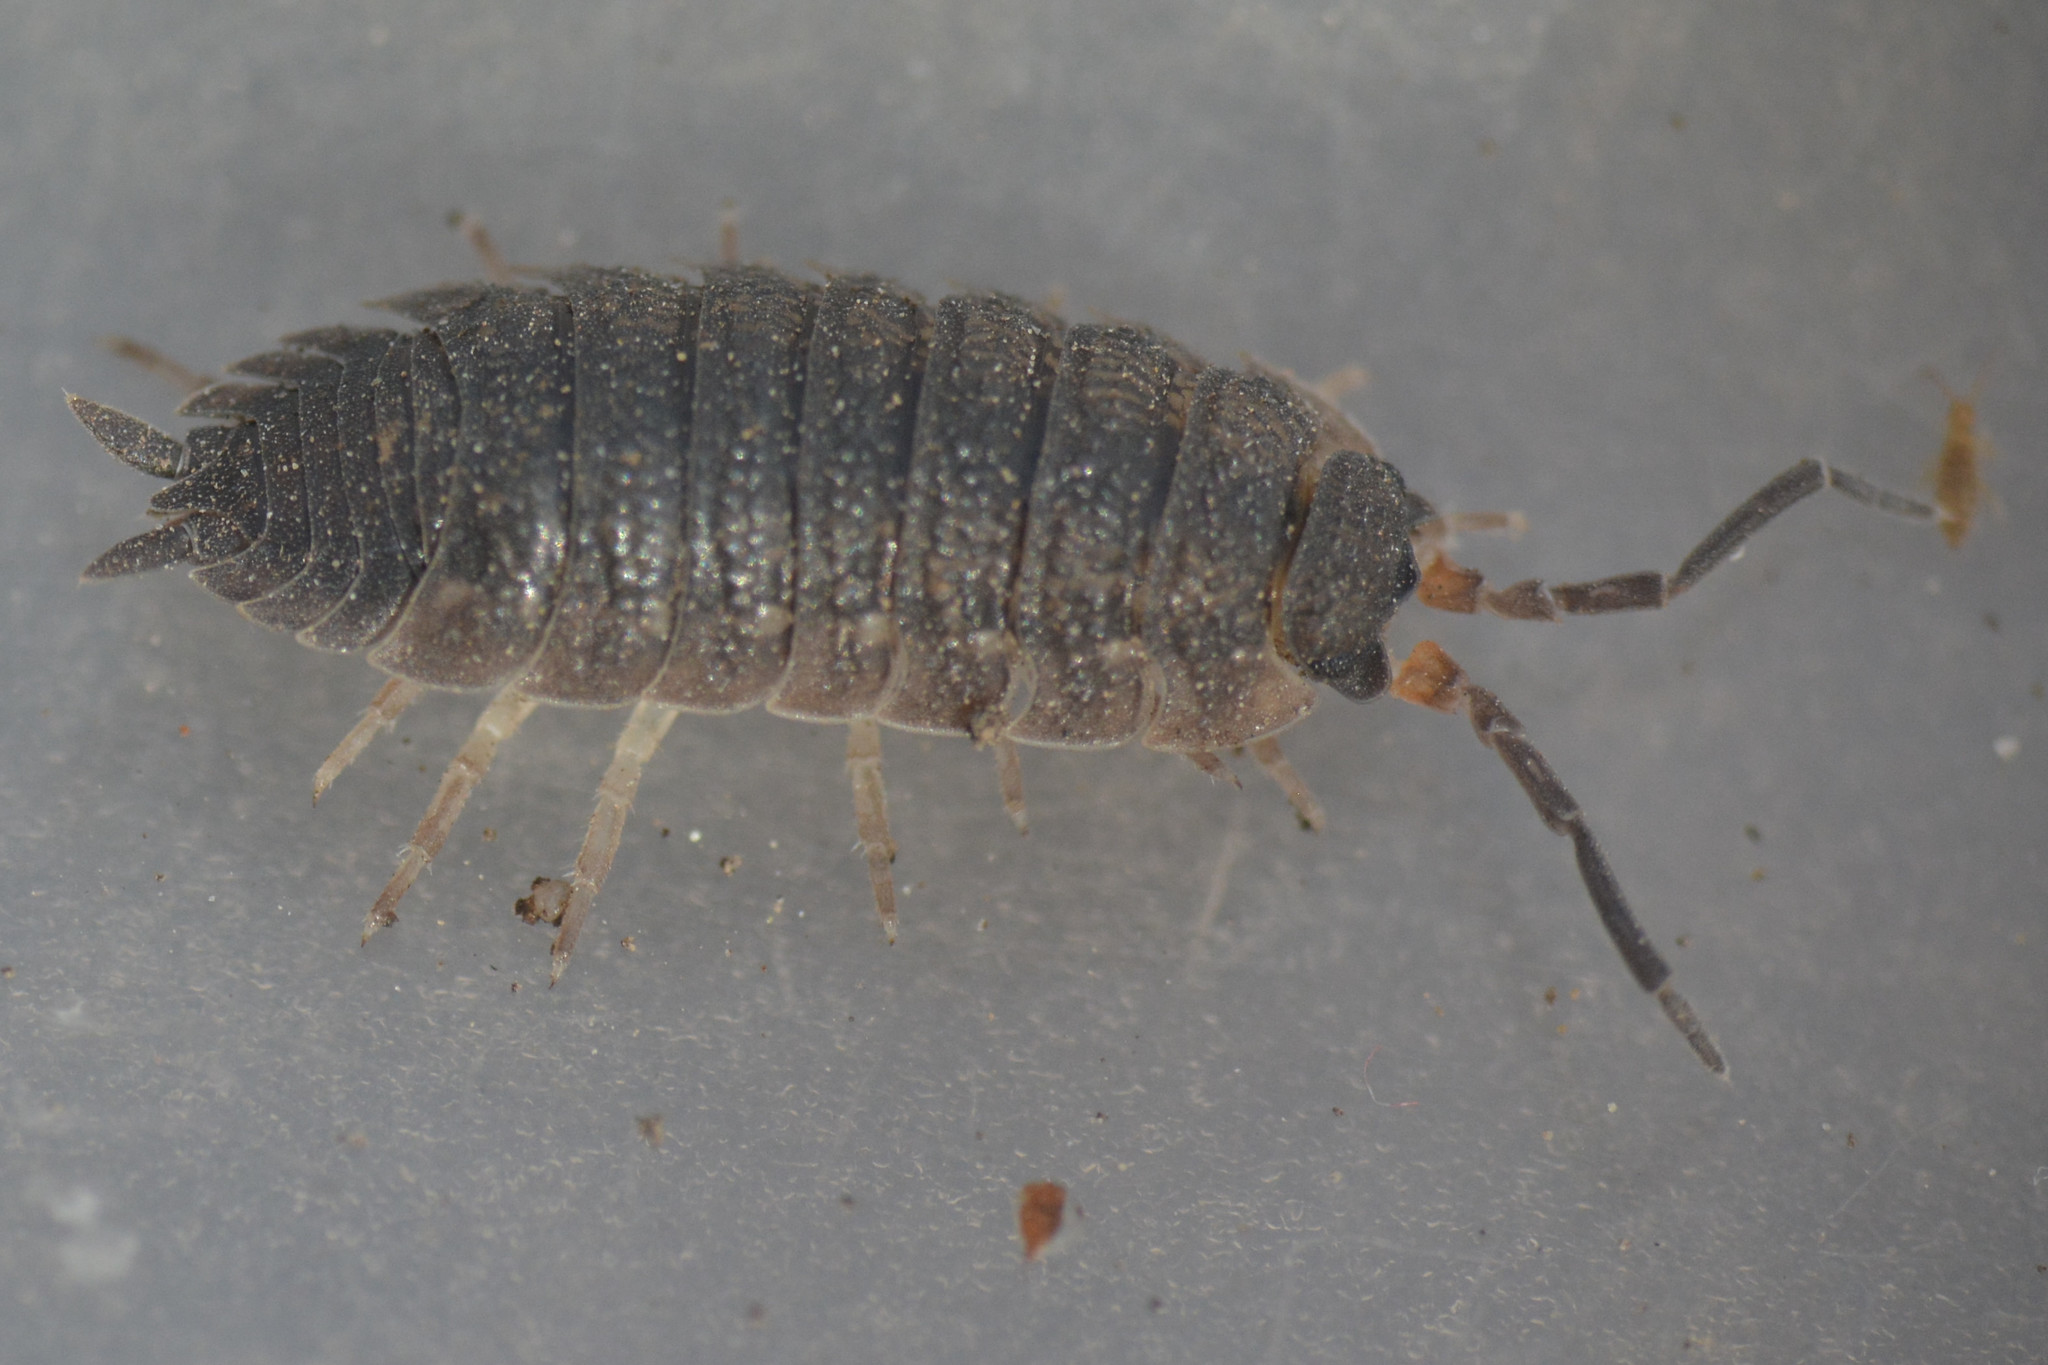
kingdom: Animalia
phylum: Arthropoda
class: Malacostraca
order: Isopoda
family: Porcellionidae
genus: Porcellio
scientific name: Porcellio scaber
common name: Common rough woodlouse
